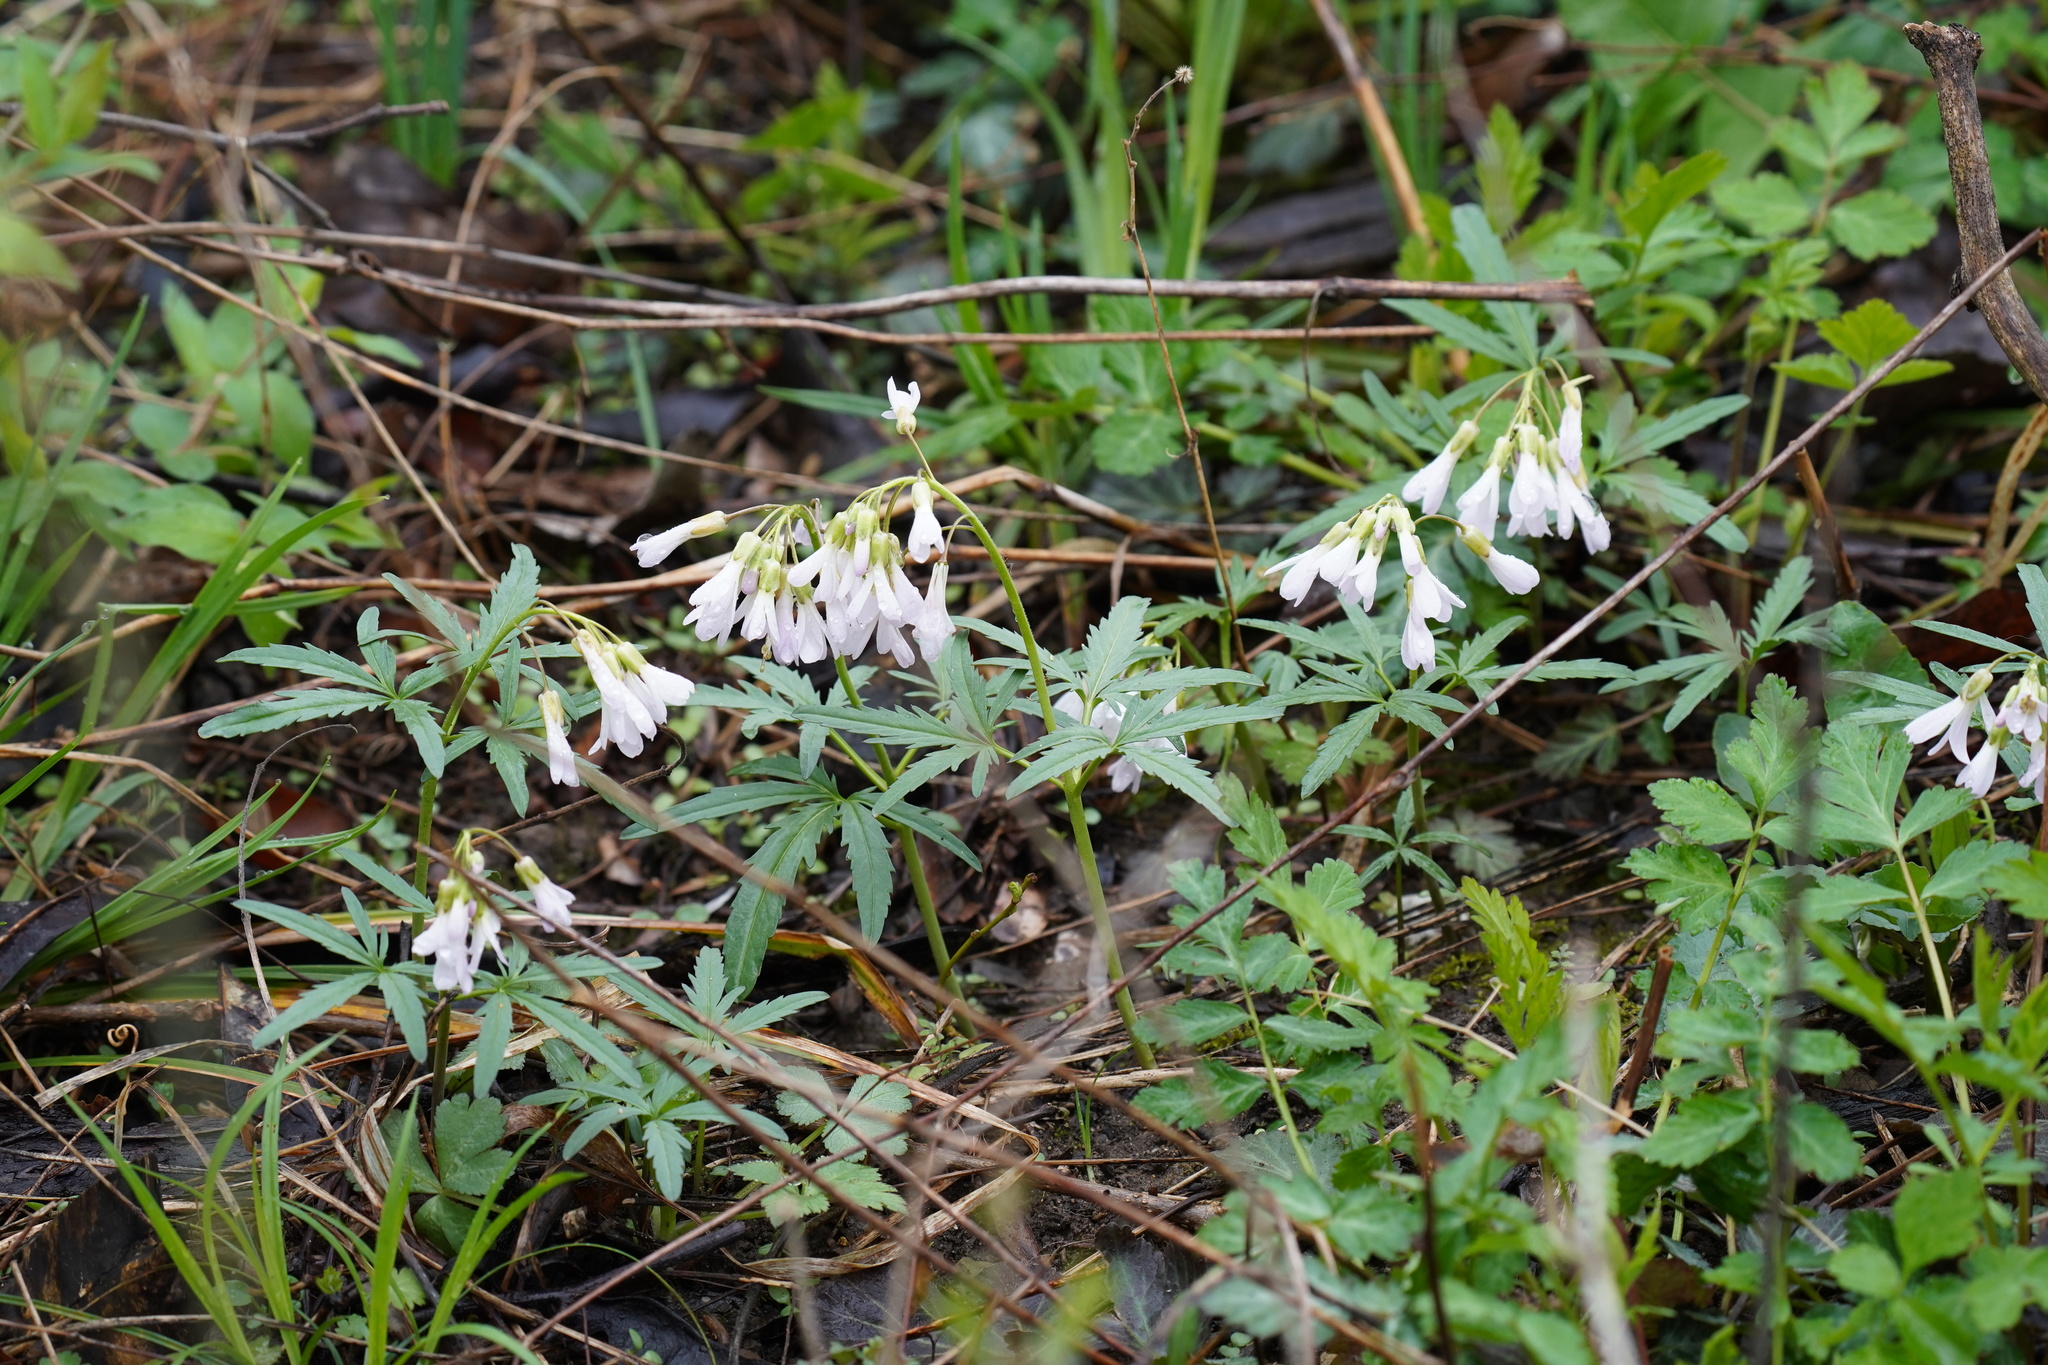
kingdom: Plantae
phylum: Tracheophyta
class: Magnoliopsida
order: Brassicales
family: Brassicaceae
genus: Cardamine
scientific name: Cardamine concatenata
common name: Cut-leaf toothcup
